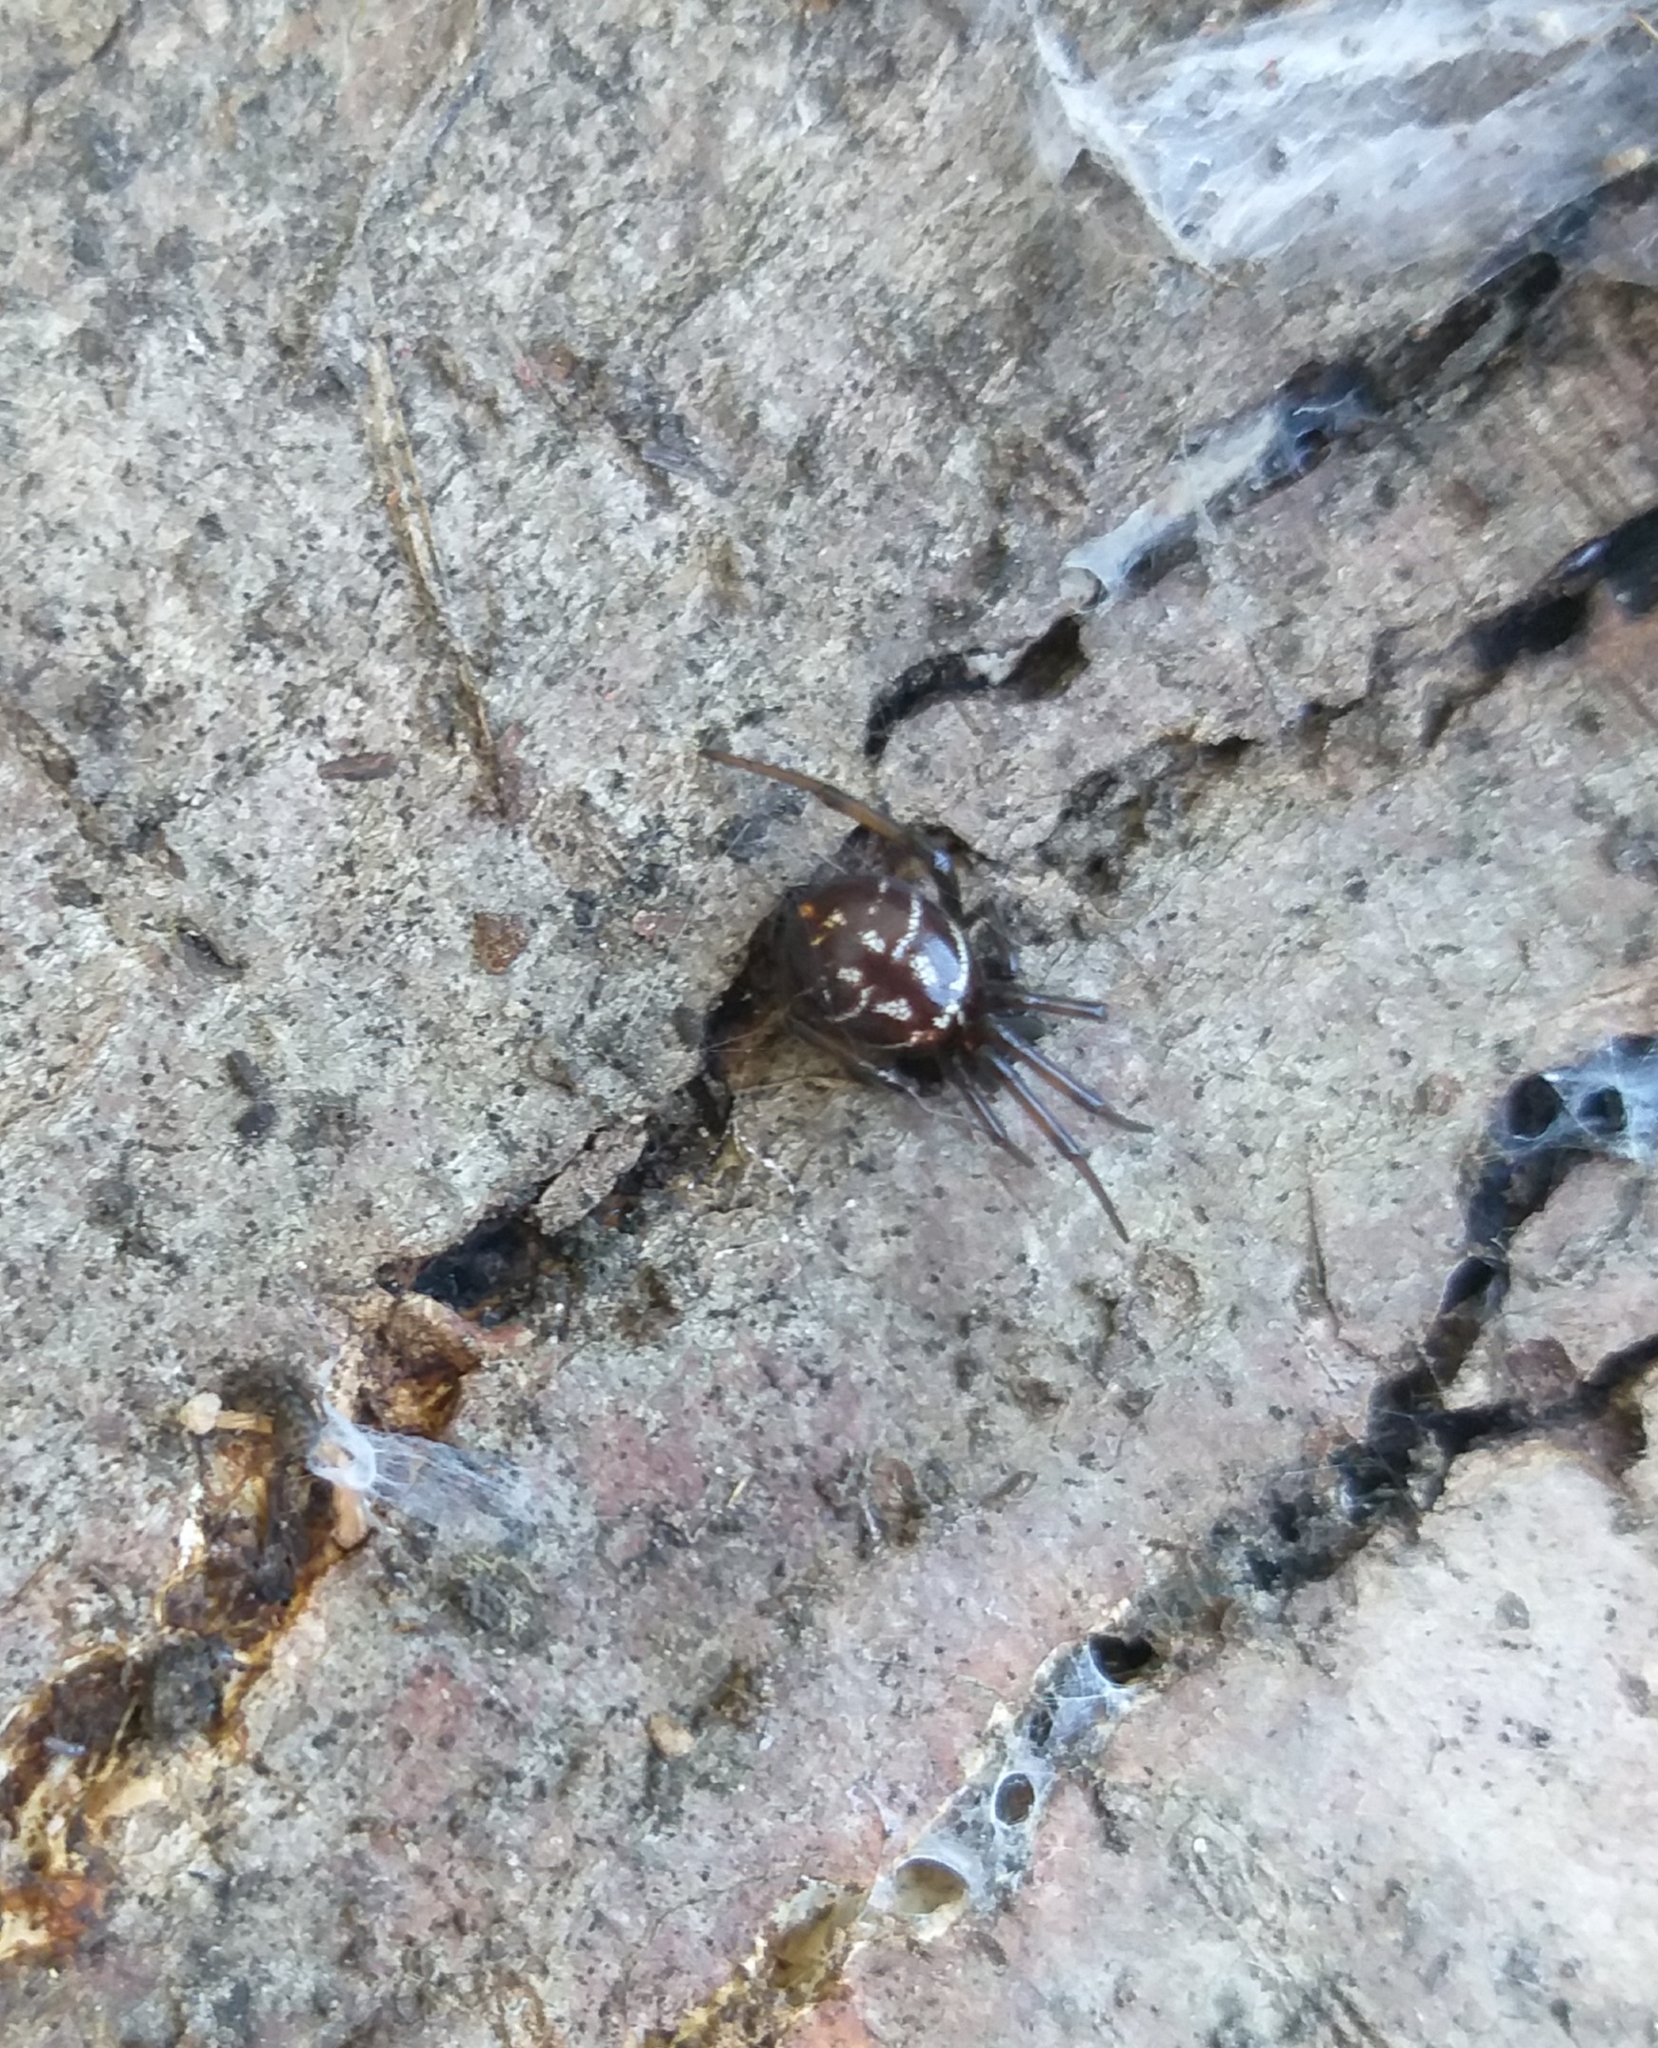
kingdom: Animalia
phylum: Arthropoda
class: Arachnida
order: Araneae
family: Theridiidae
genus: Steatoda
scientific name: Steatoda capensis
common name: Cobweb weaver
